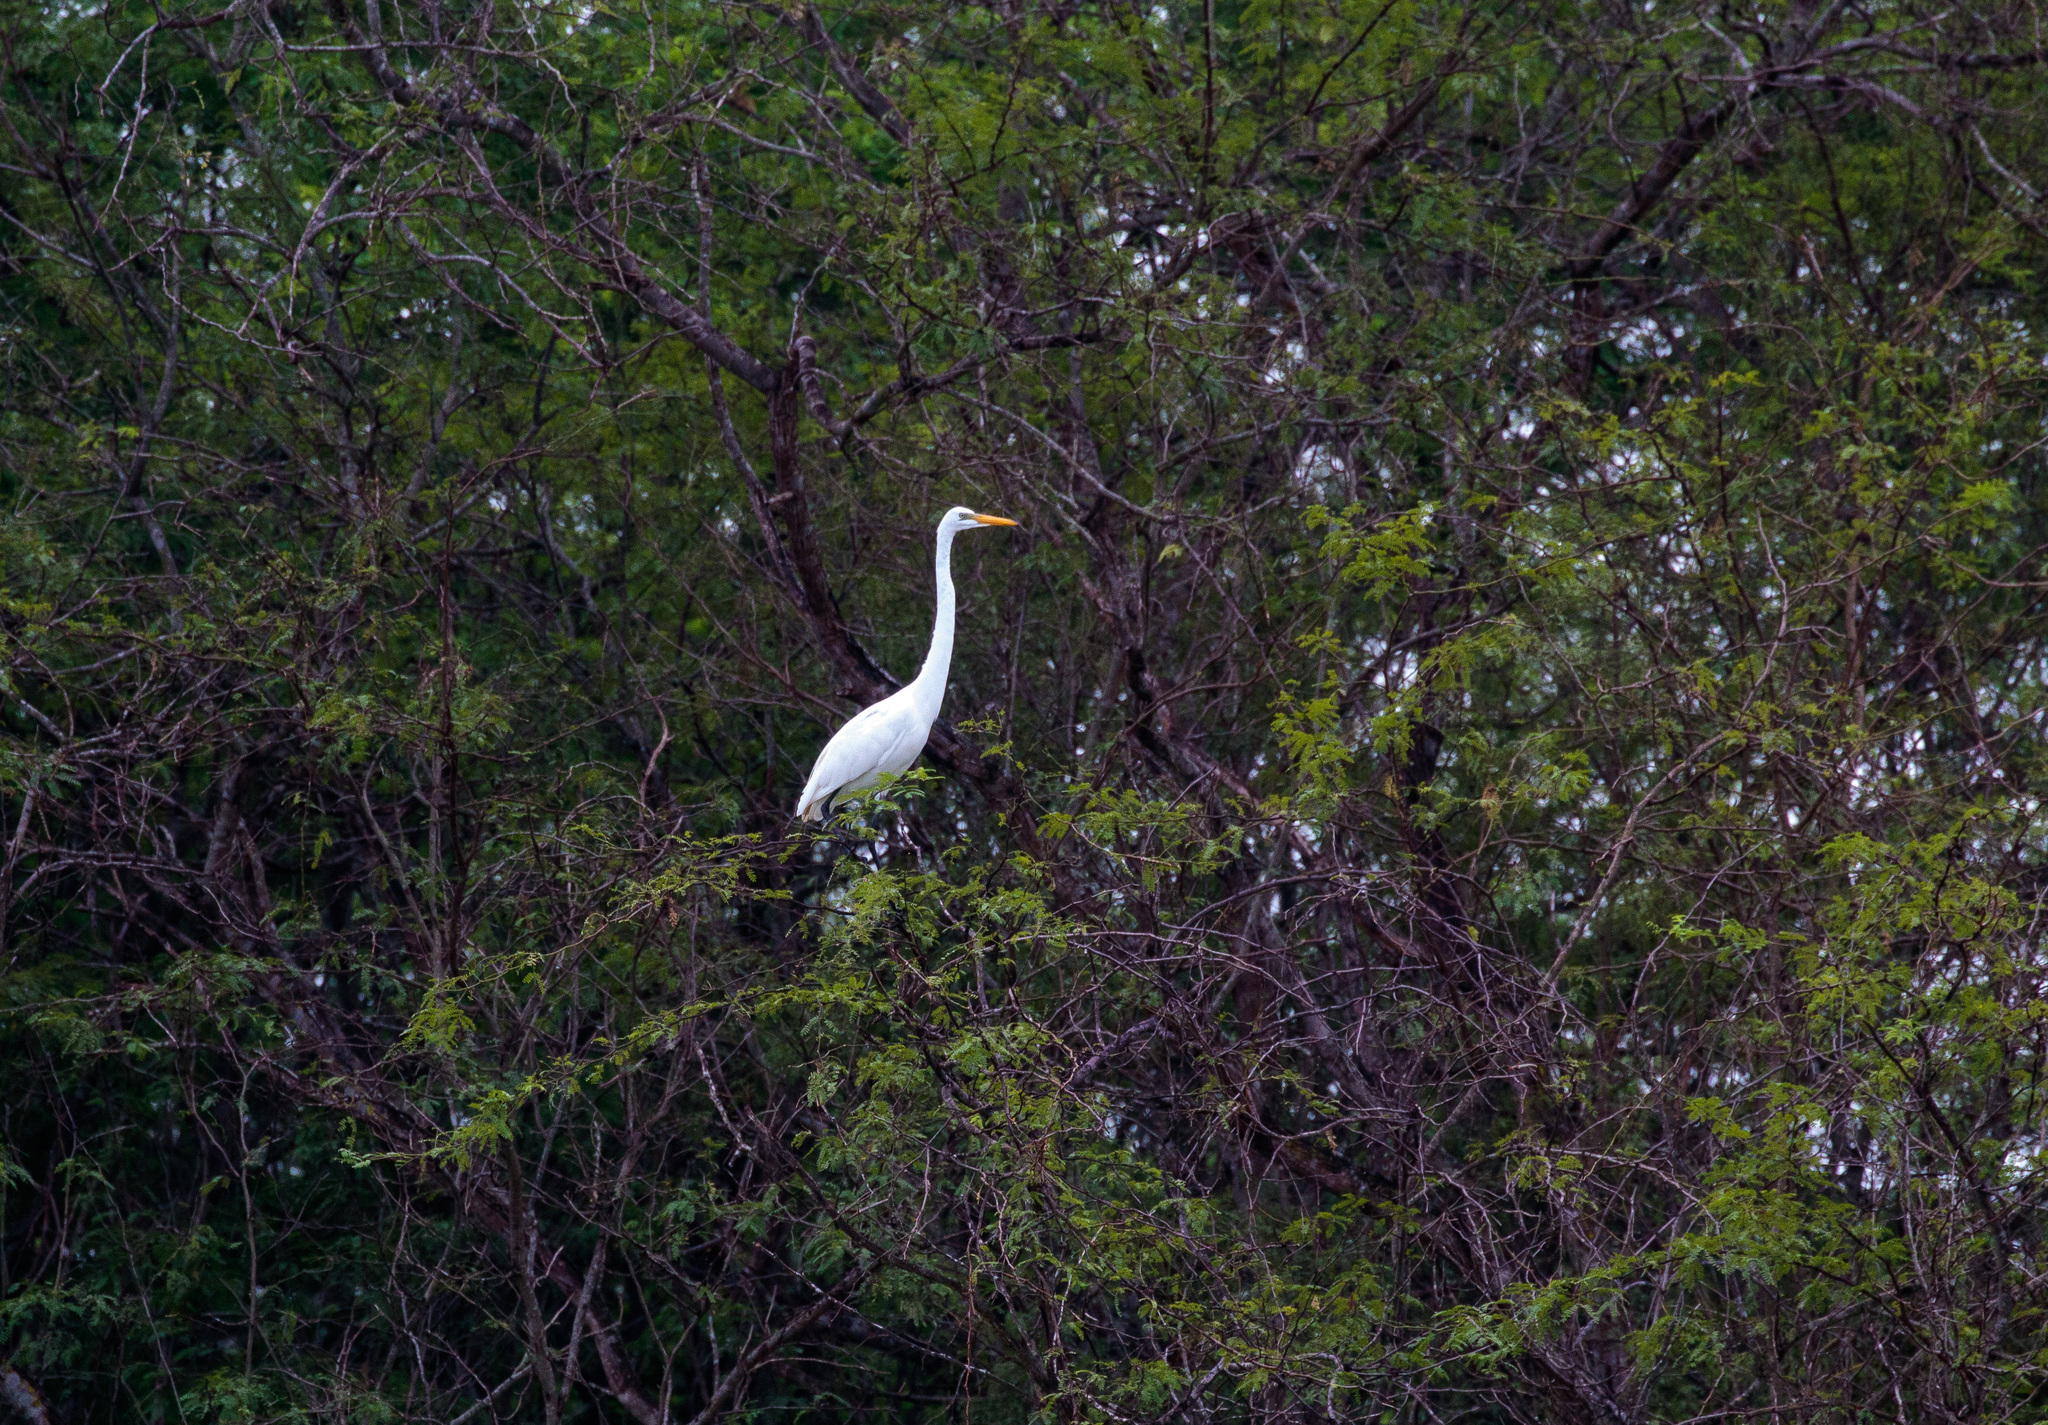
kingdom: Animalia
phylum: Chordata
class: Aves
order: Pelecaniformes
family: Ardeidae
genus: Ardea
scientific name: Ardea alba
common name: Great egret
